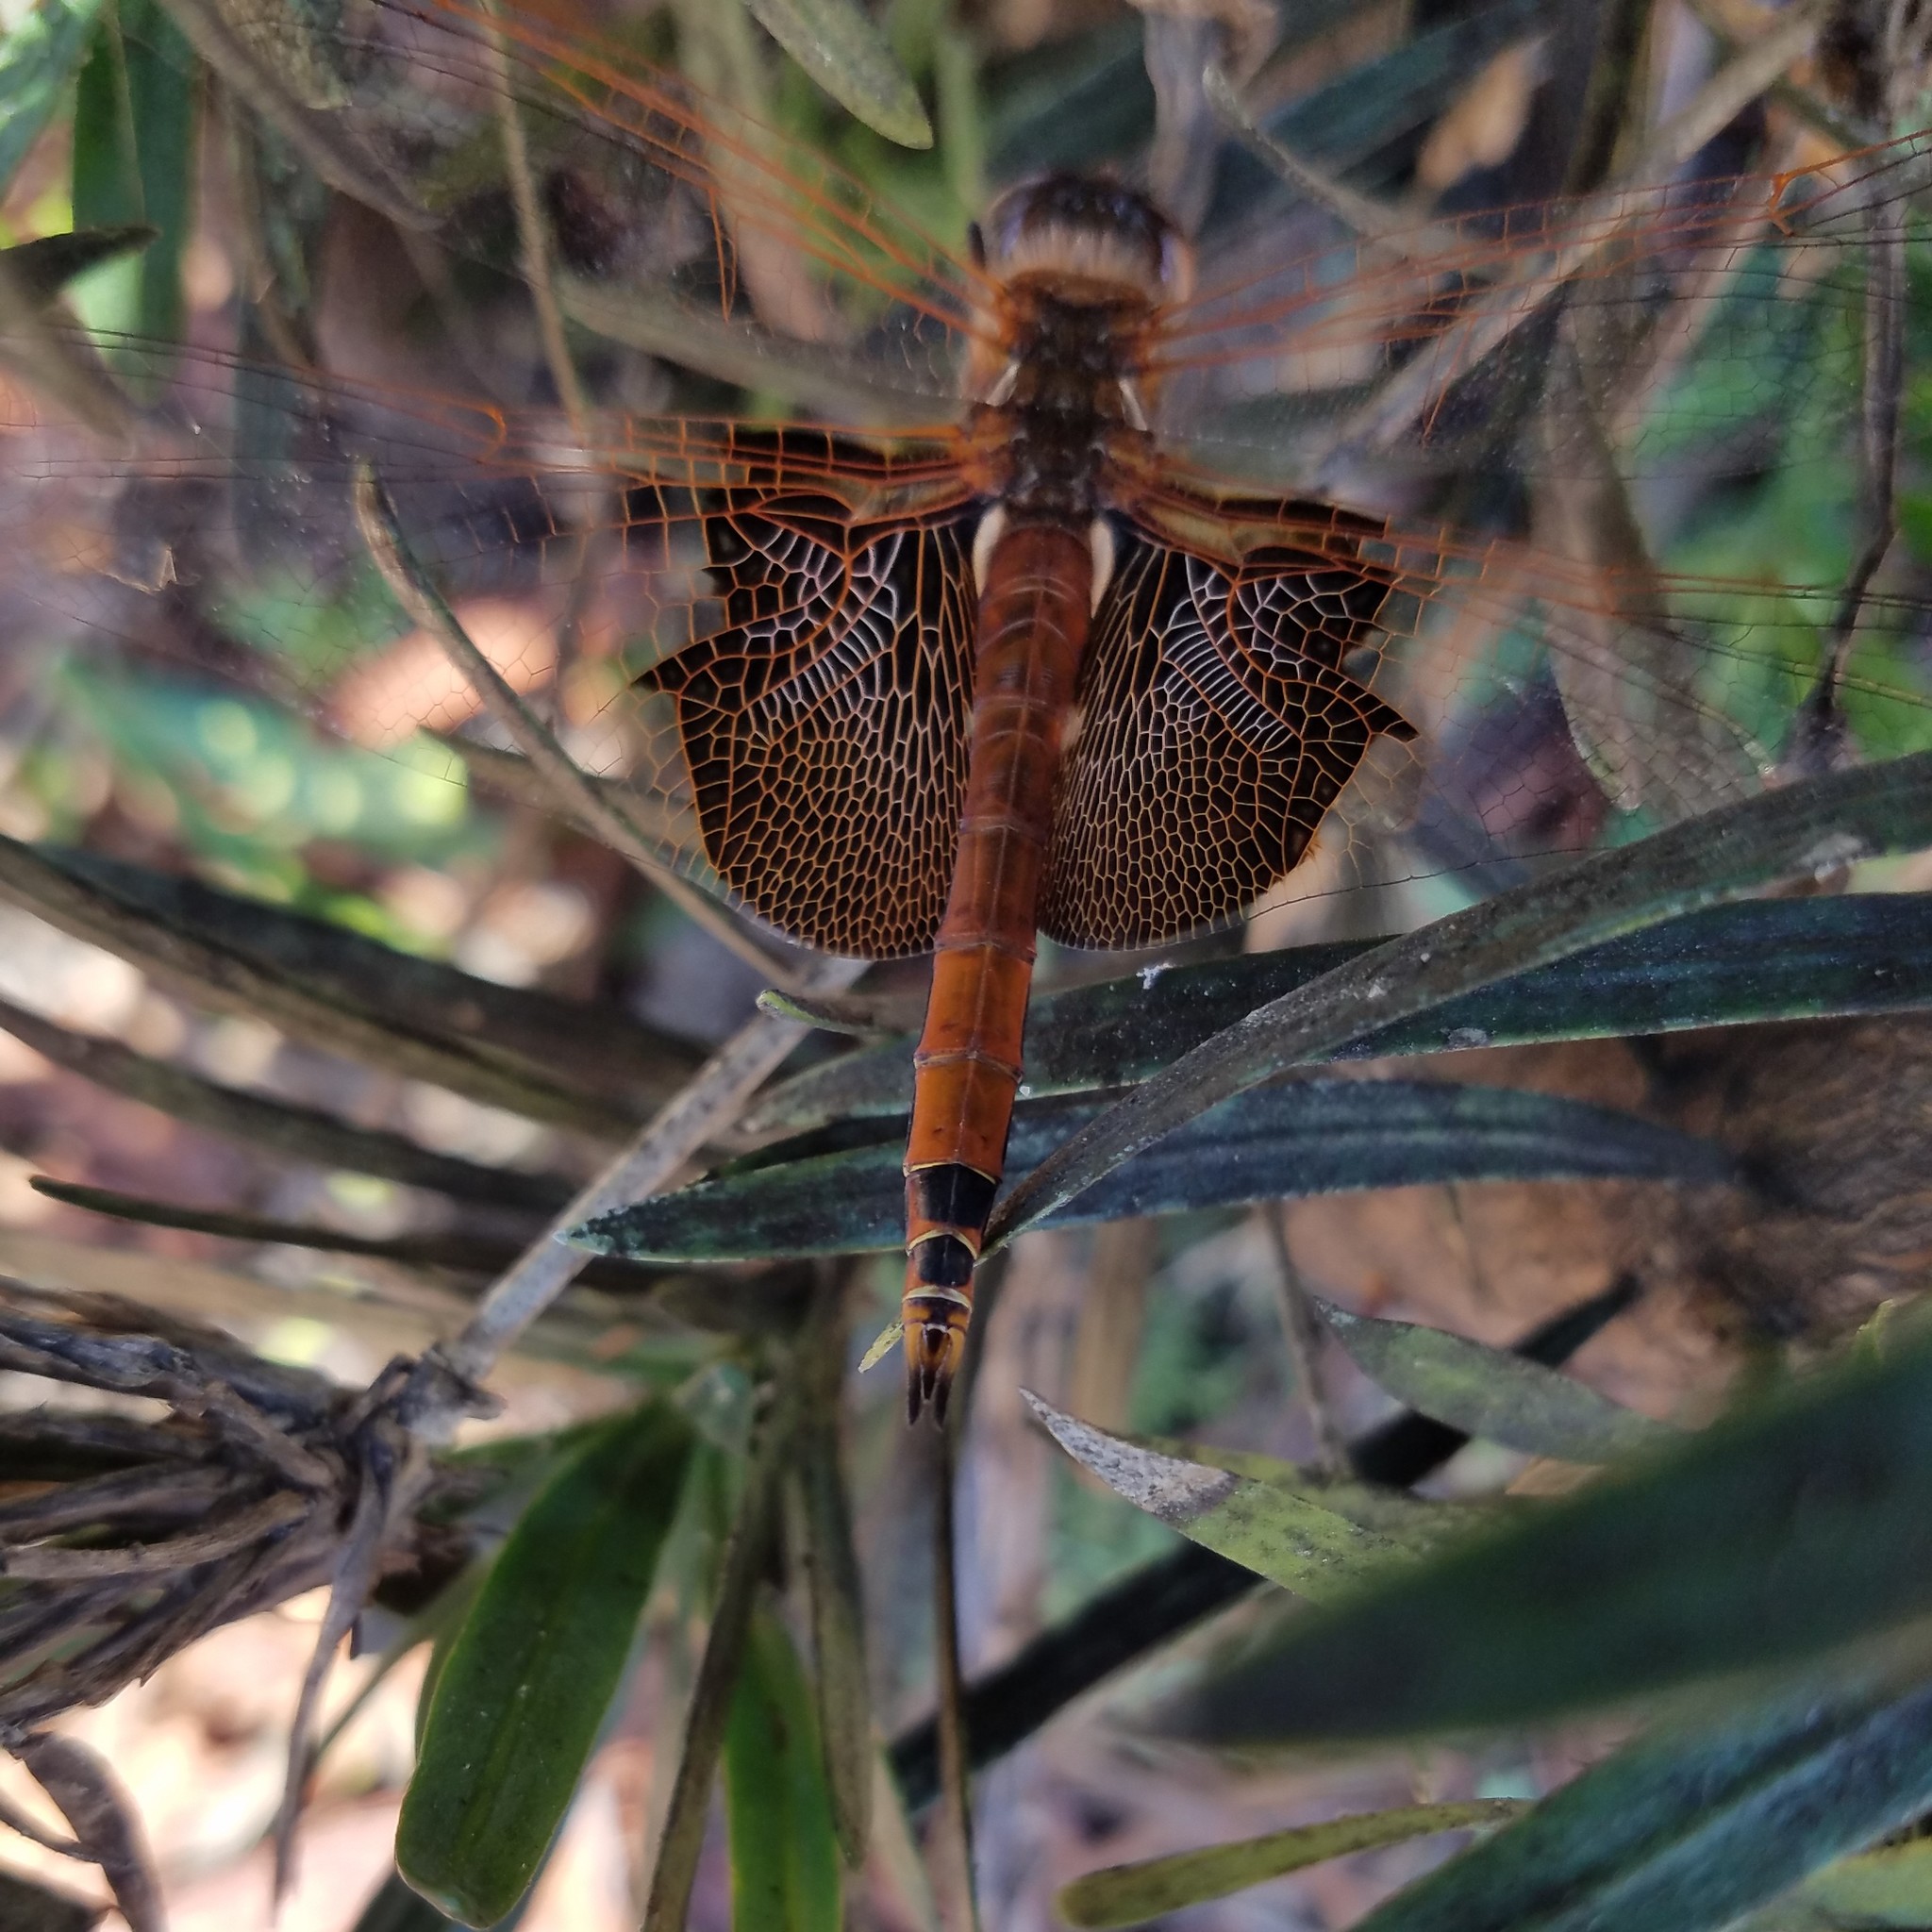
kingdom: Animalia
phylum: Arthropoda
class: Insecta
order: Odonata
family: Libellulidae
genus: Tramea
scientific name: Tramea carolina
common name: Carolina saddlebags
